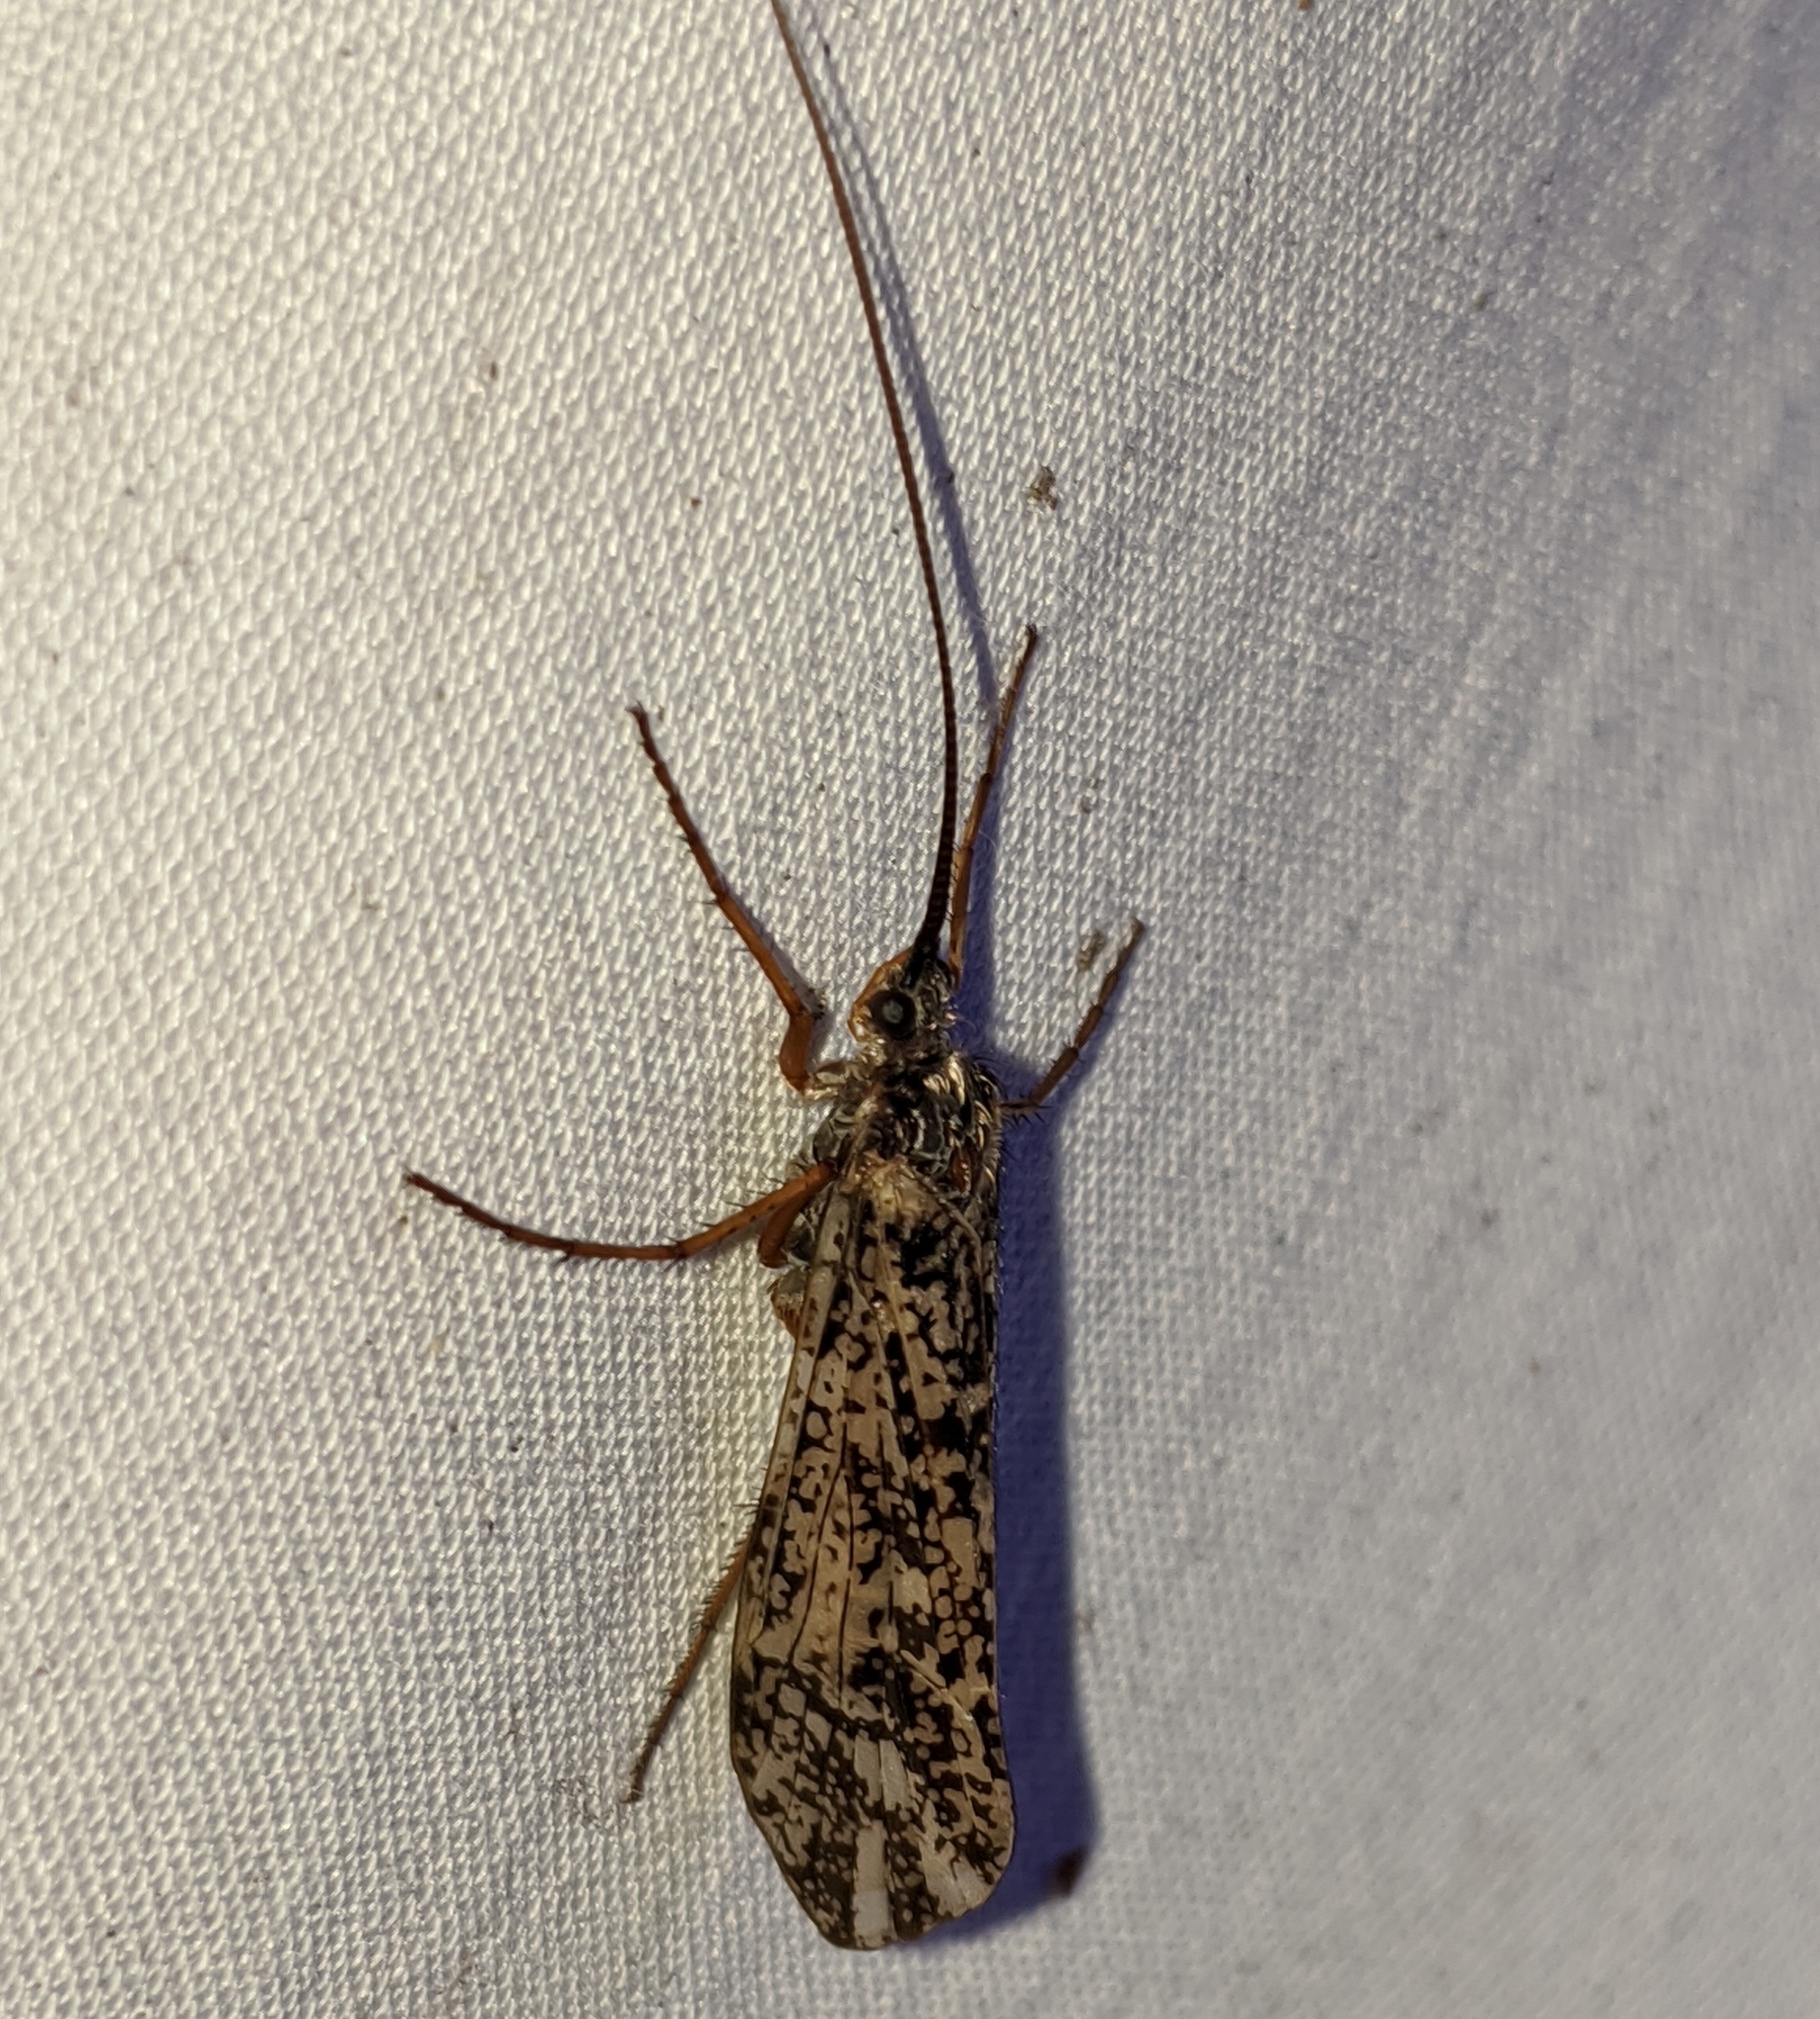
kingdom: Animalia
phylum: Arthropoda
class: Insecta
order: Trichoptera
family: Limnephilidae
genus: Clistoronia
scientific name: Clistoronia magnifica
